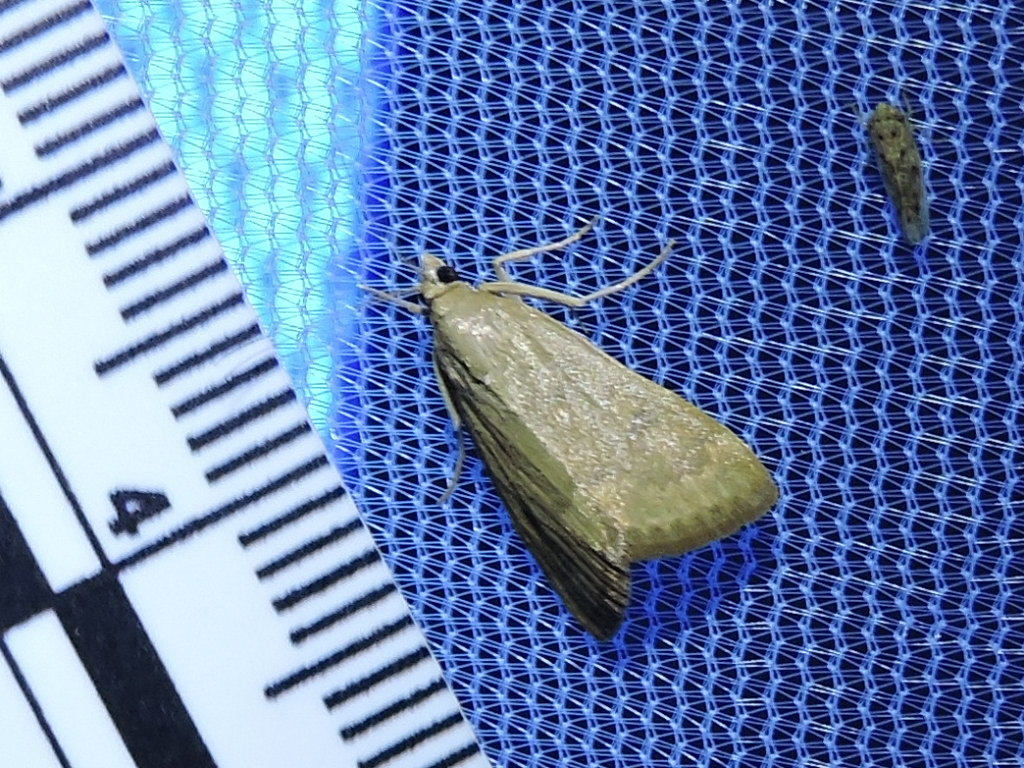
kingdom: Animalia
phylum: Arthropoda
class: Insecta
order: Lepidoptera
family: Crambidae
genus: Achyra
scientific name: Achyra rantalis
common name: Garden webworm
